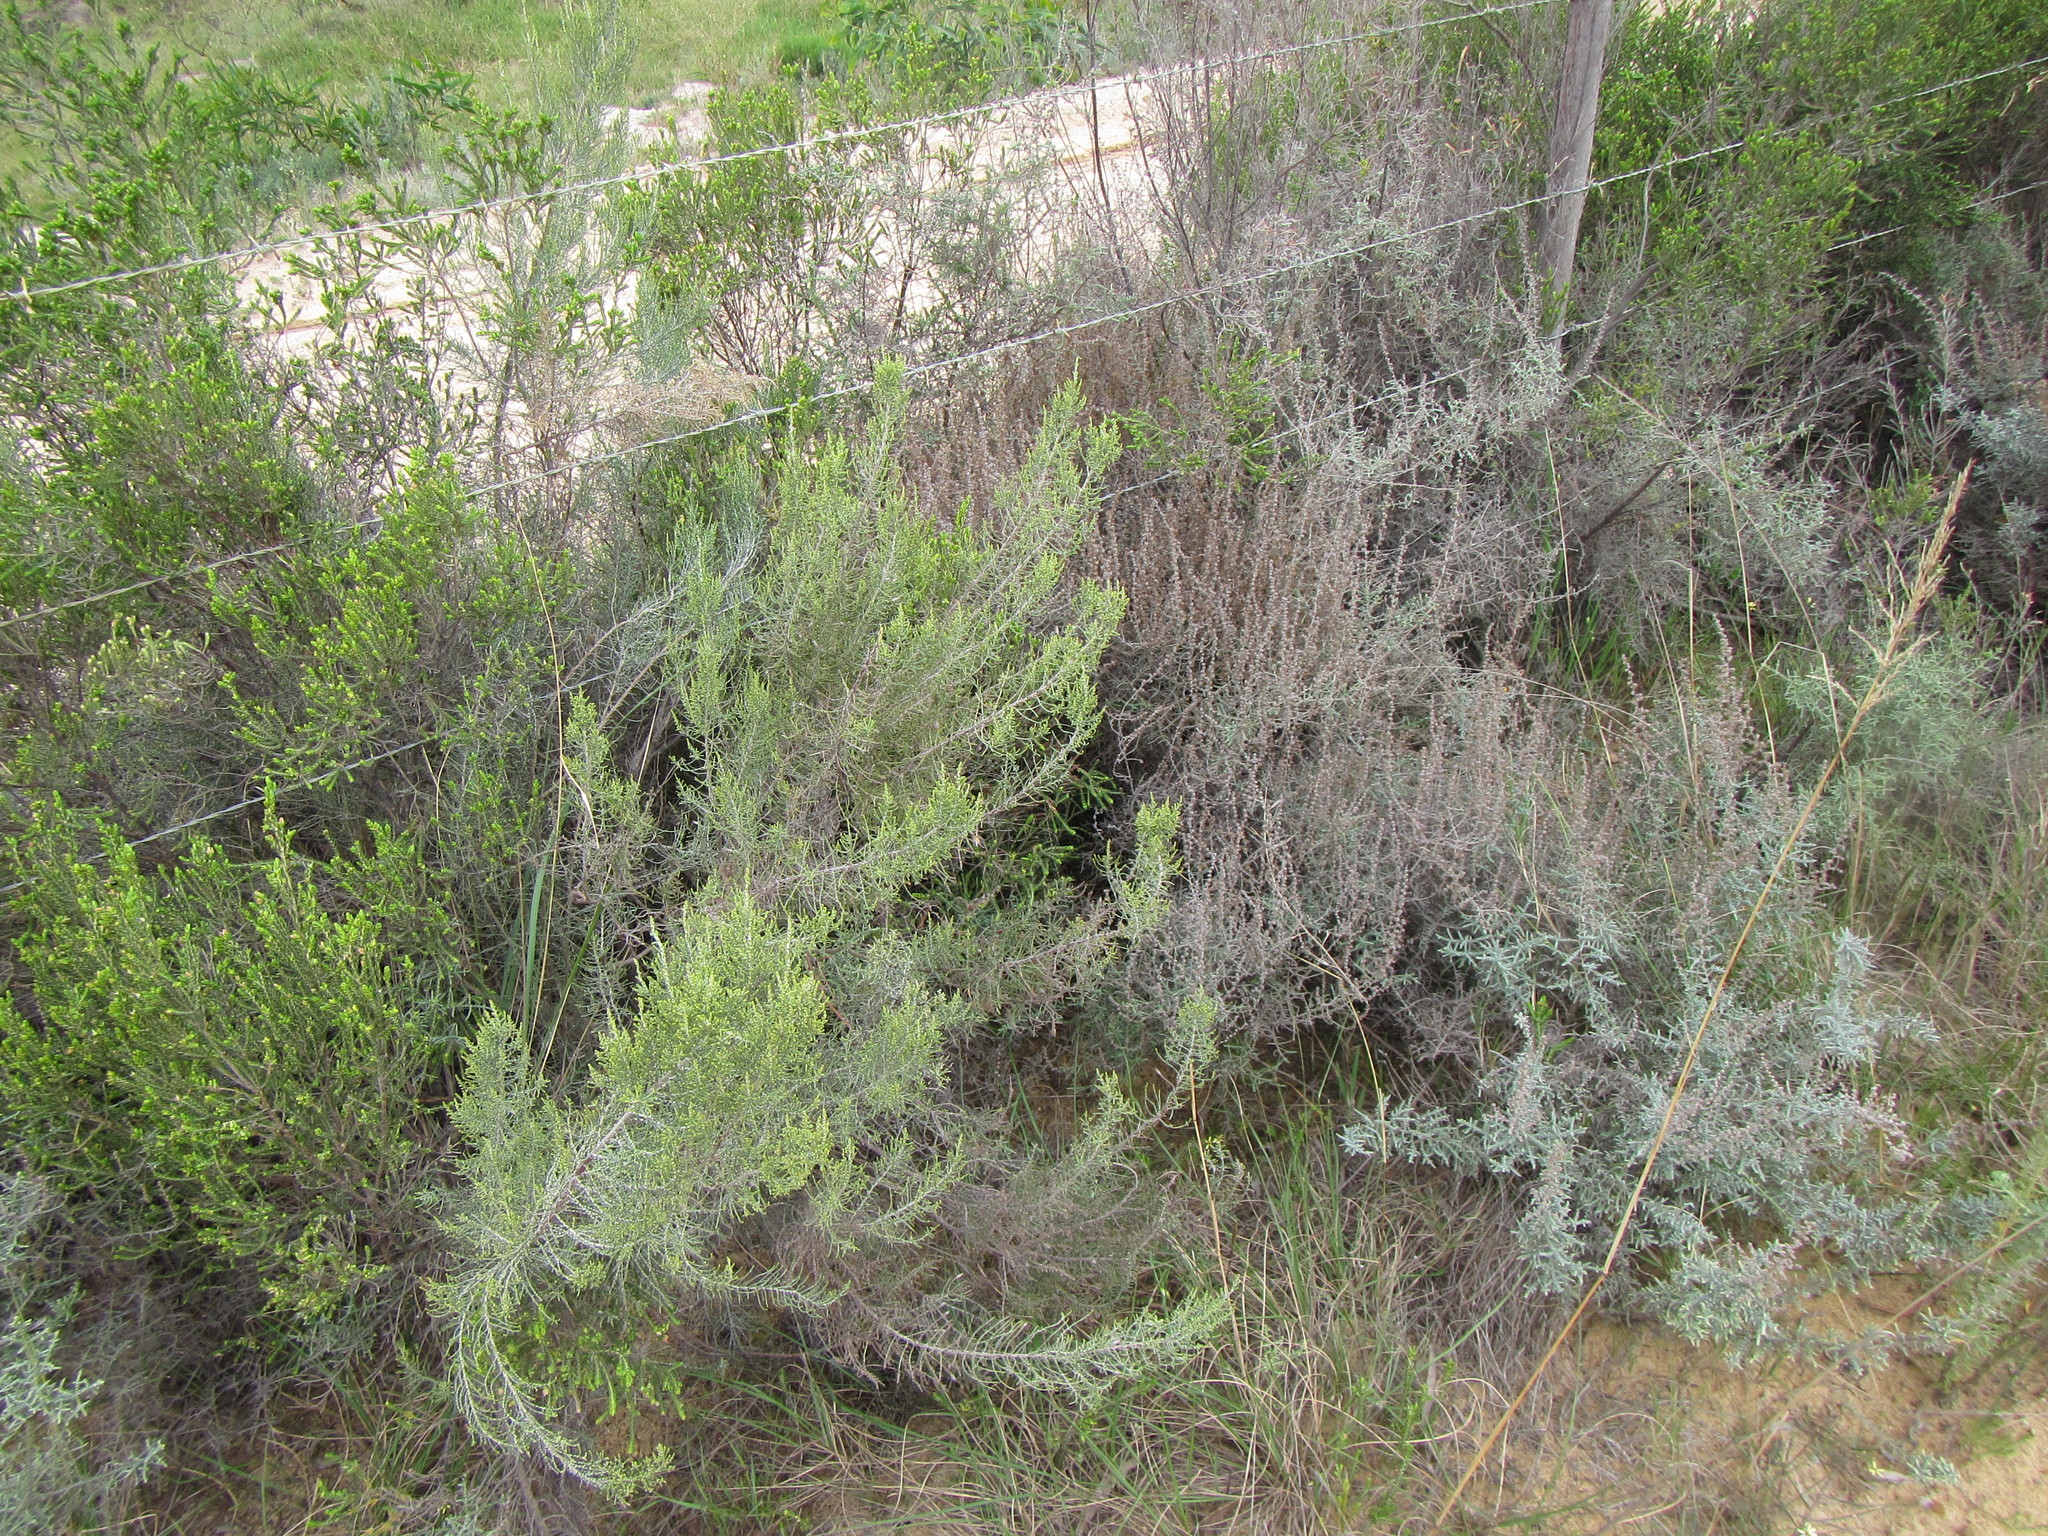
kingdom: Plantae
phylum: Tracheophyta
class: Magnoliopsida
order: Asterales
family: Asteraceae
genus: Dicerothamnus
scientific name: Dicerothamnus rhinocerotis
